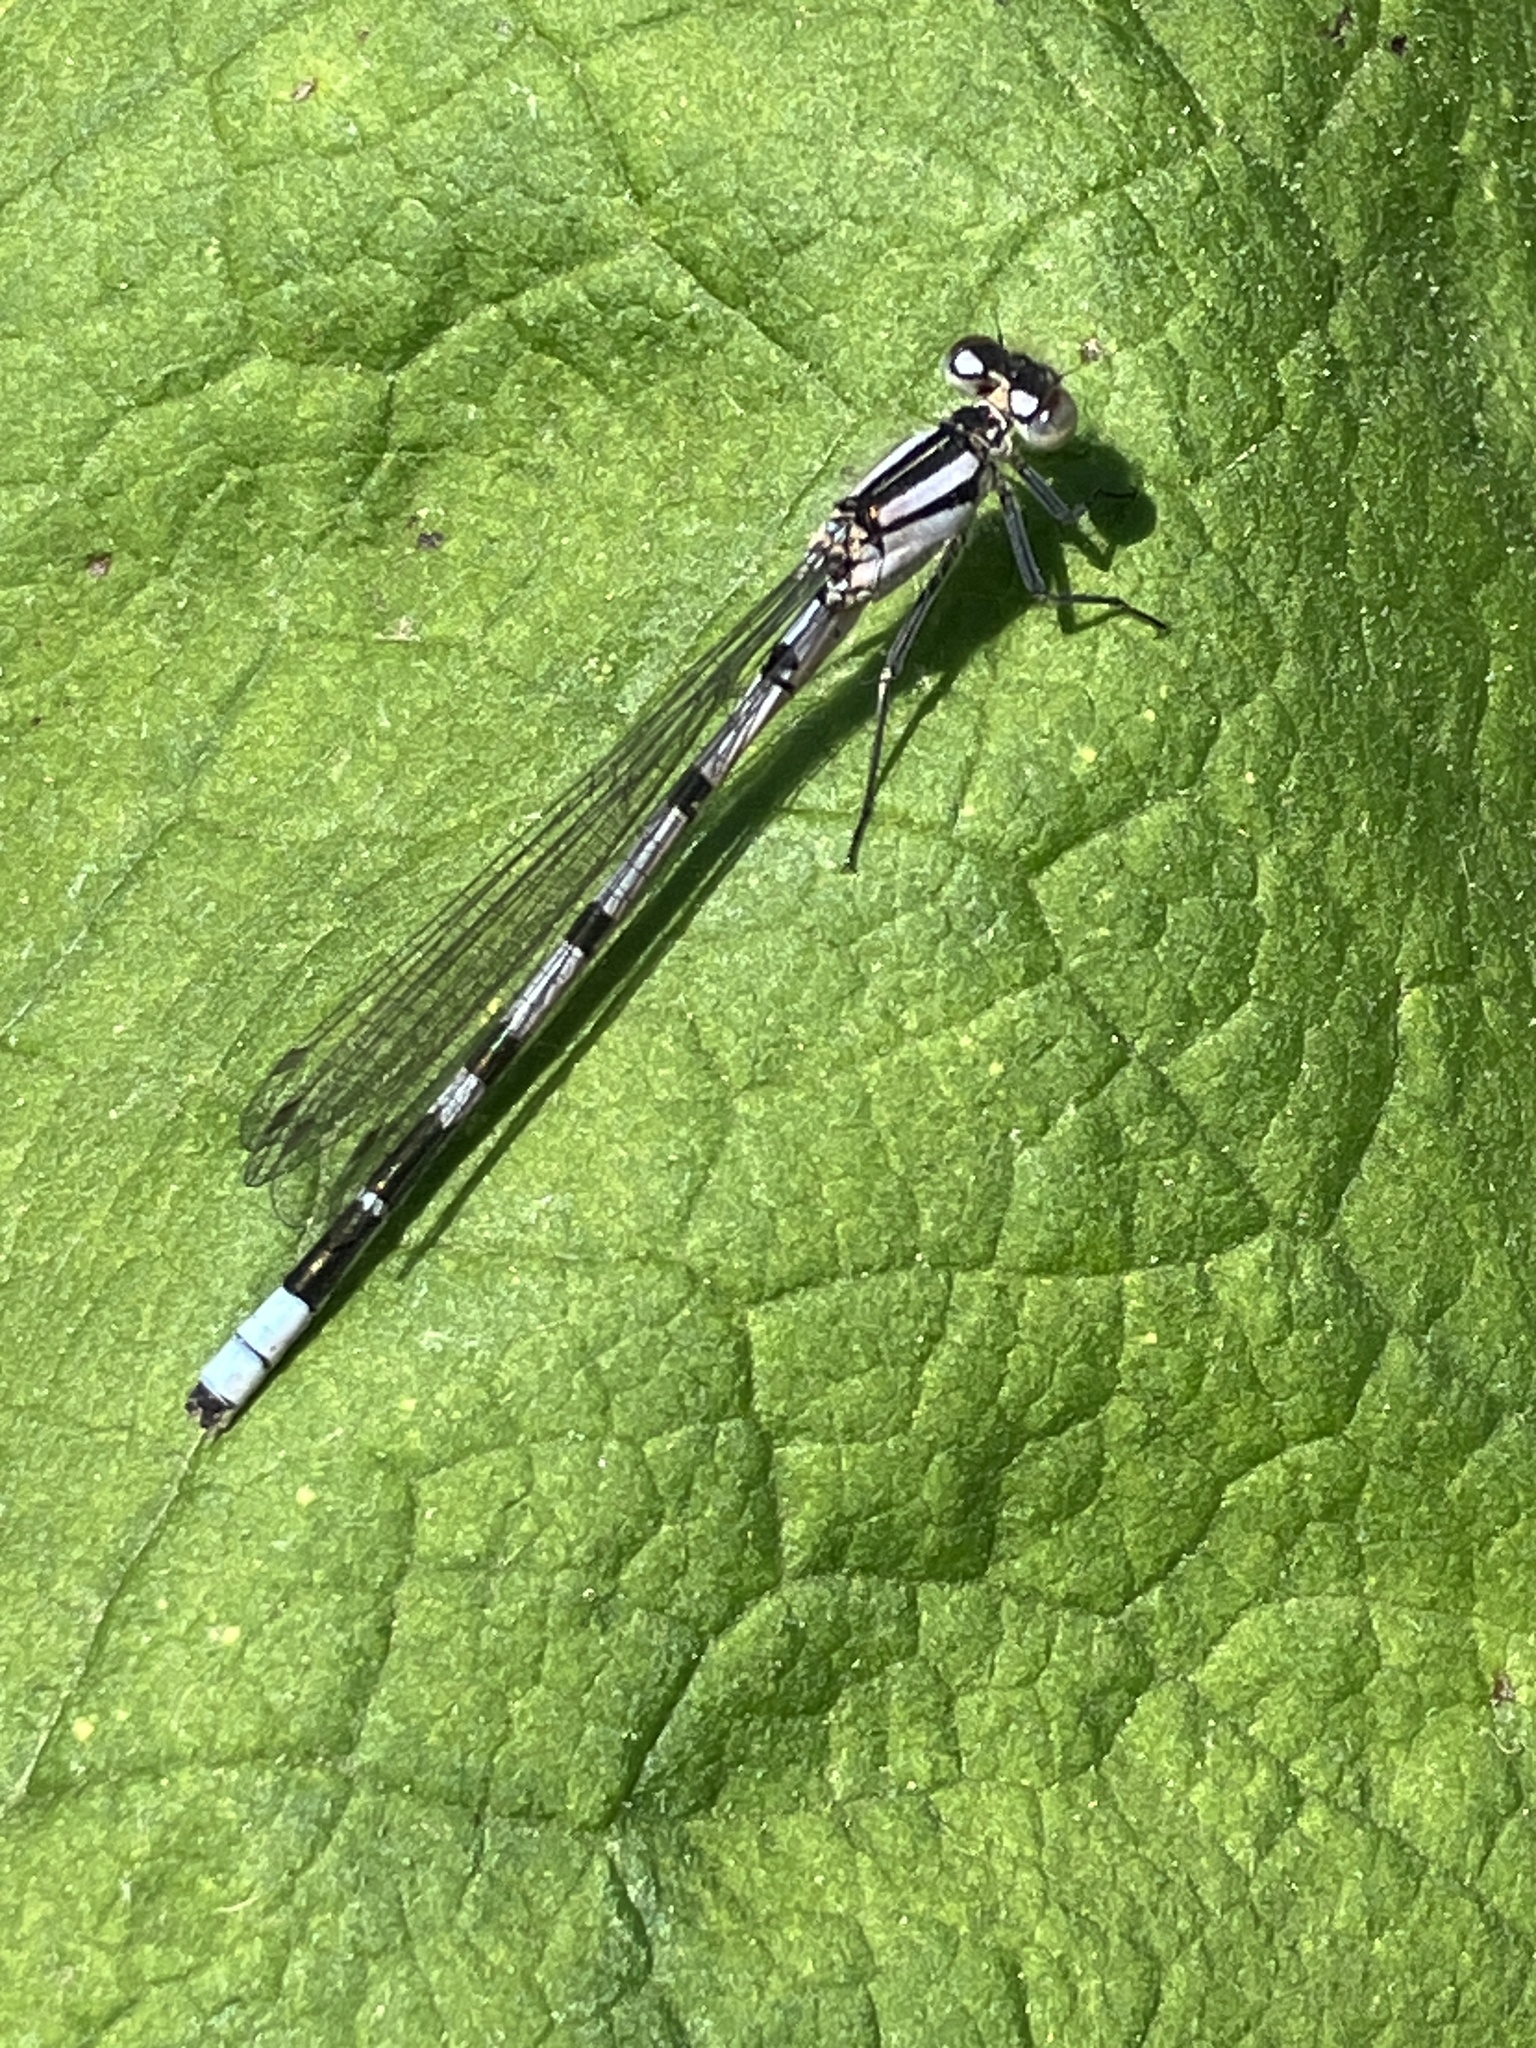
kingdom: Animalia
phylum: Arthropoda
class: Insecta
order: Odonata
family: Coenagrionidae
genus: Enallagma
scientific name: Enallagma cyathigerum
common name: Common blue damselfly
